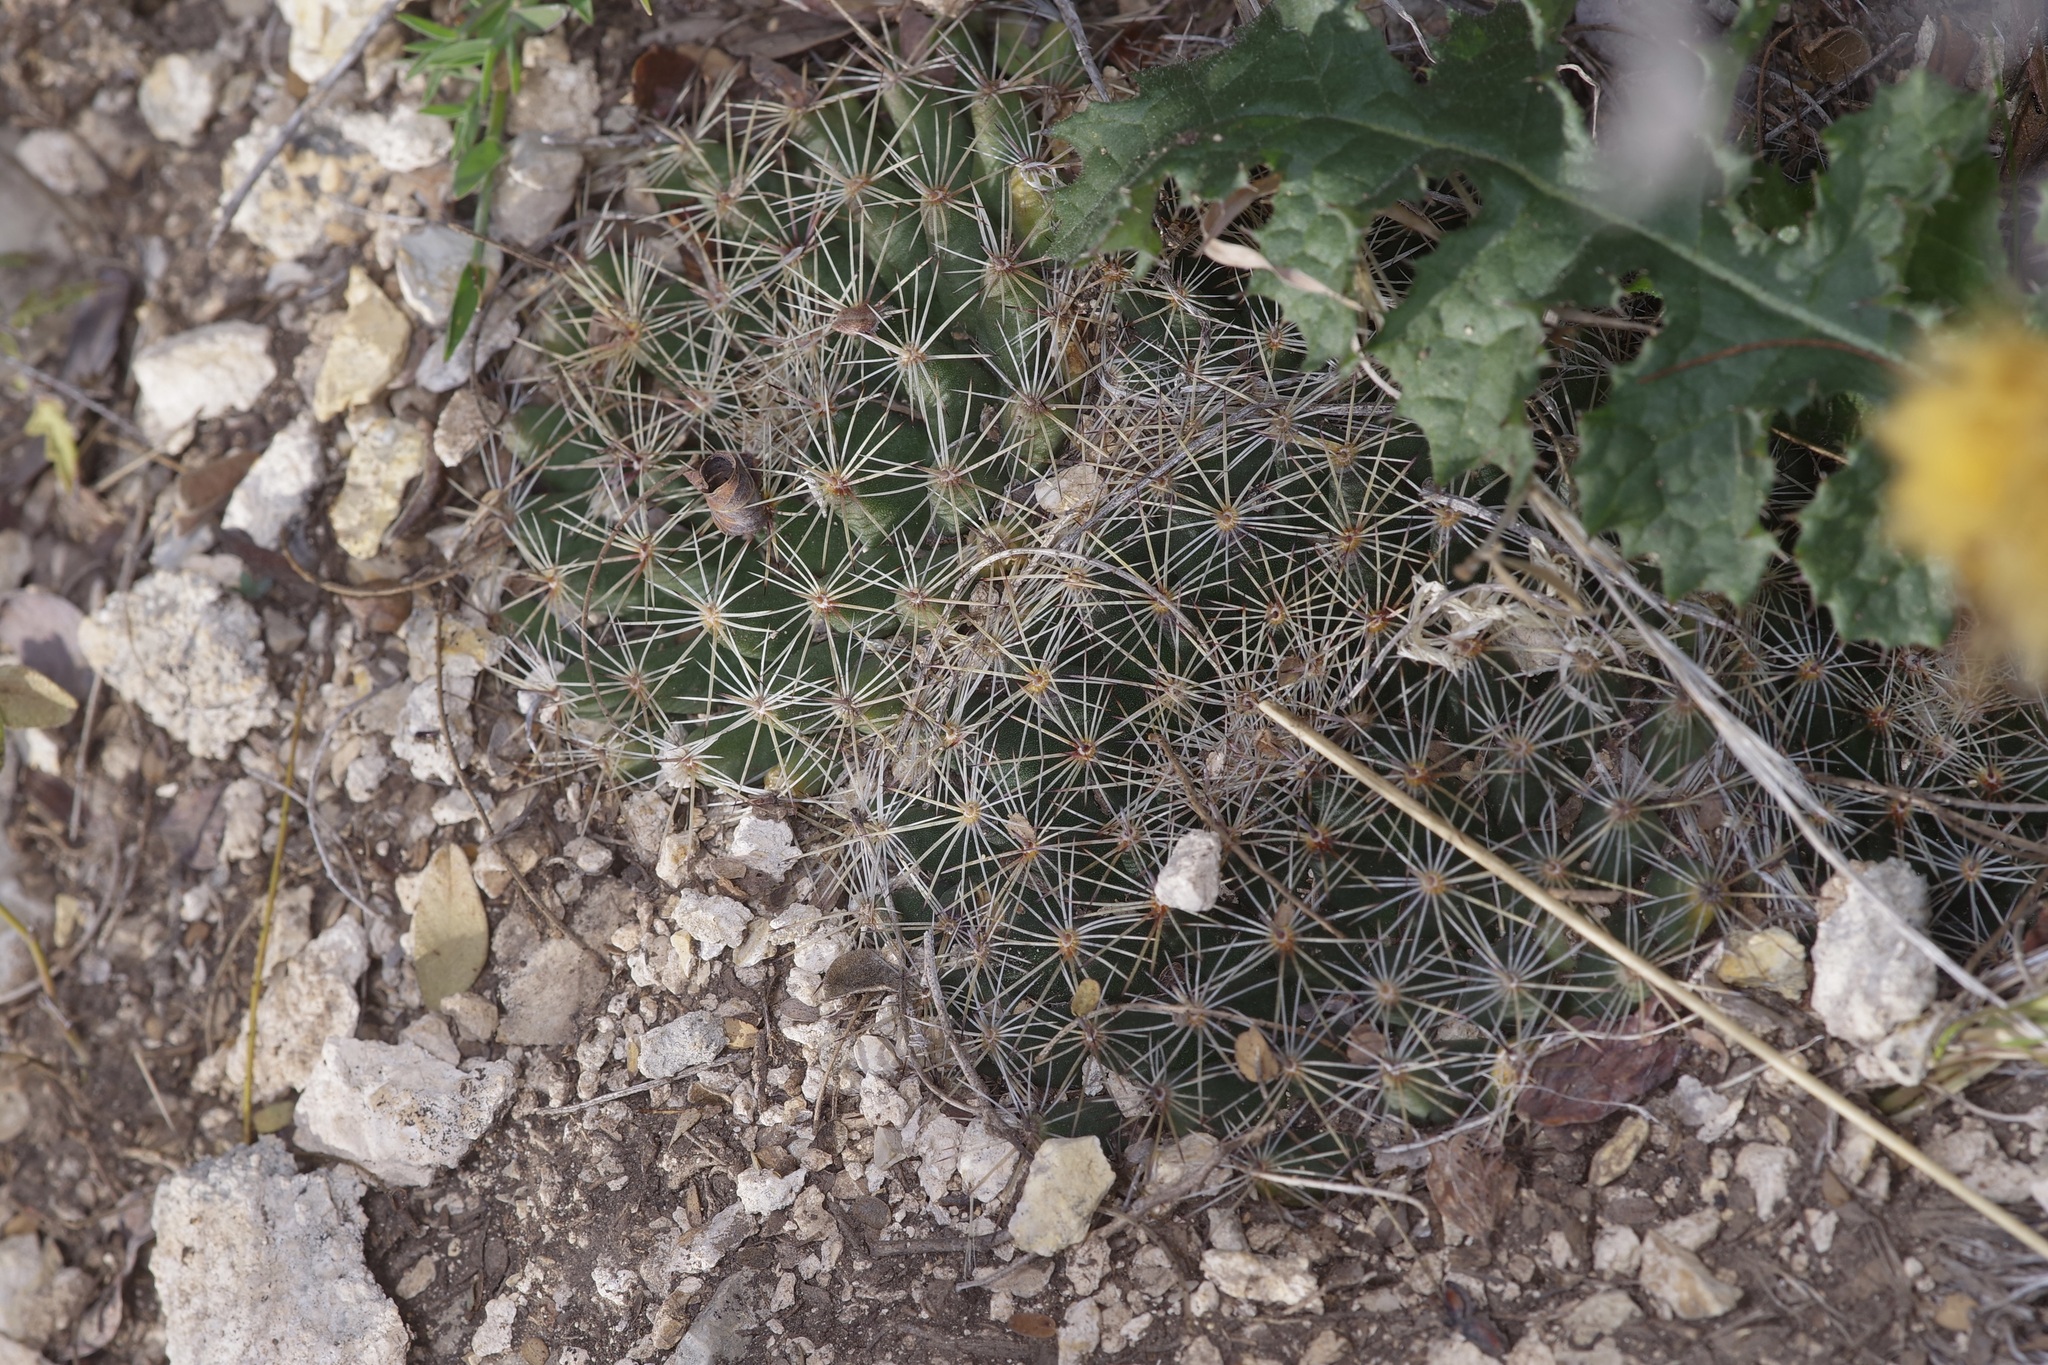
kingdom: Plantae
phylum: Tracheophyta
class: Magnoliopsida
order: Caryophyllales
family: Cactaceae
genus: Mammillaria
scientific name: Mammillaria heyderi
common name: Little nipple cactus
